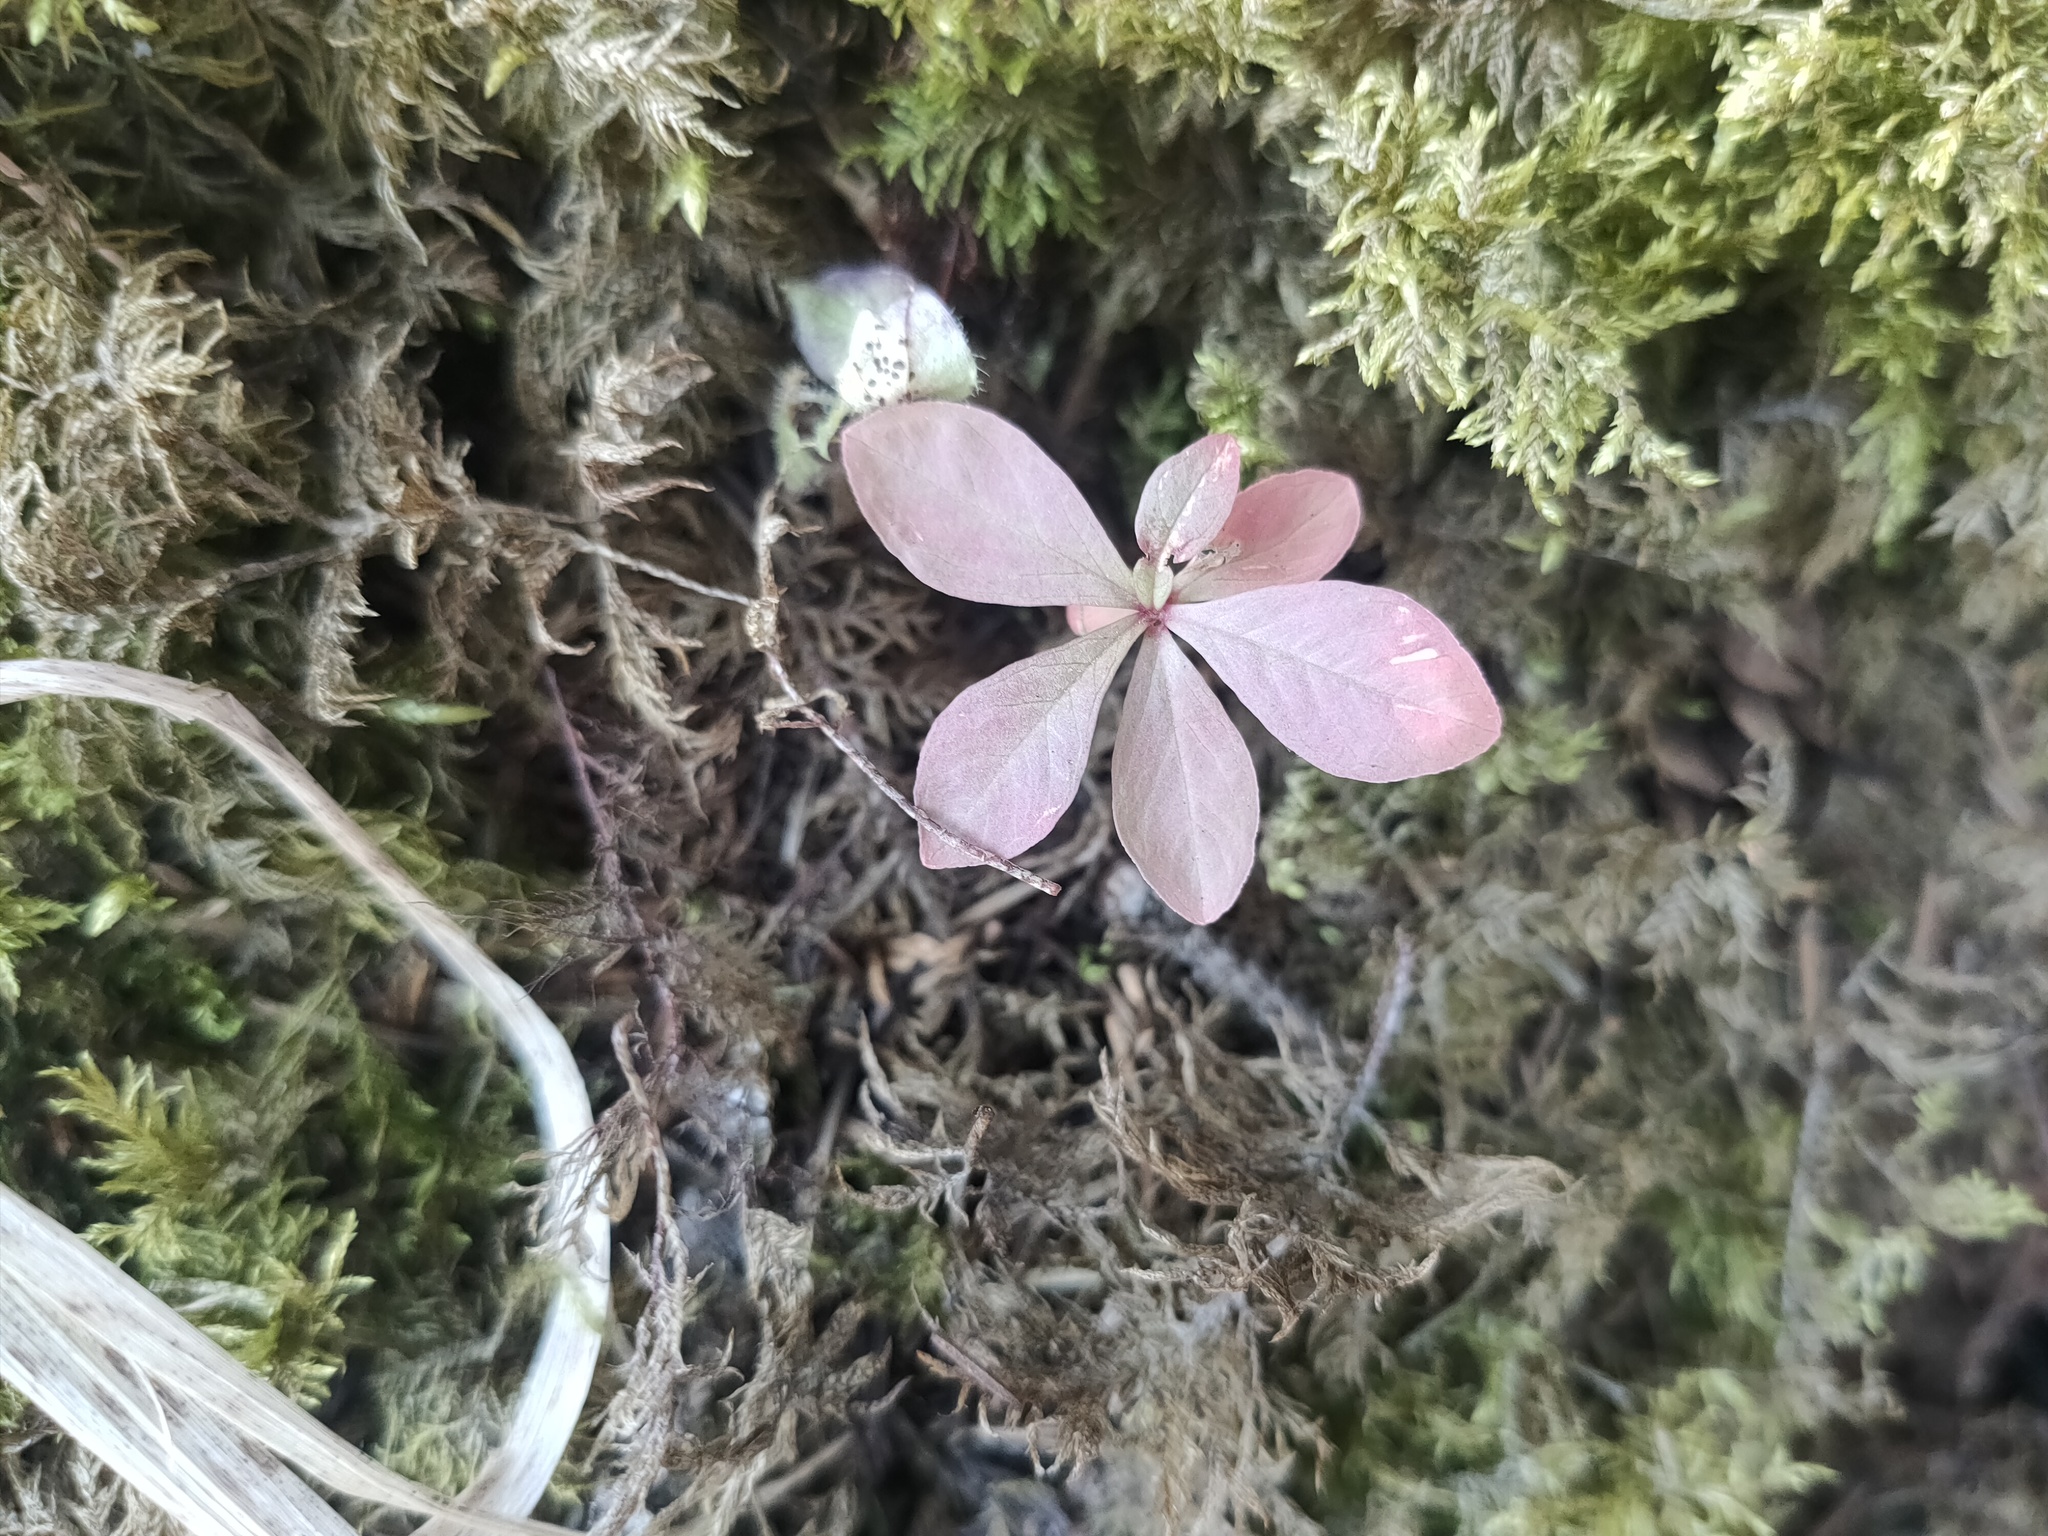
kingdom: Plantae
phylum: Tracheophyta
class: Magnoliopsida
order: Ericales
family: Primulaceae
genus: Lysimachia
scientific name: Lysimachia europaea
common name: Arctic starflower
